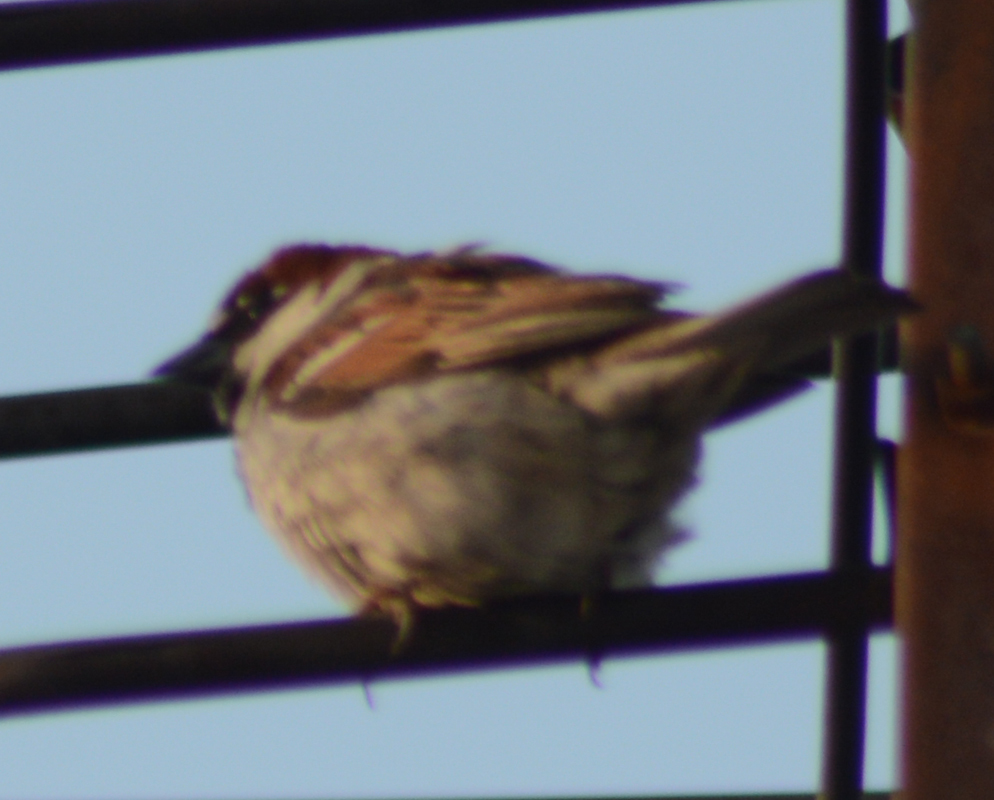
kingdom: Animalia
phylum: Chordata
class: Aves
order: Passeriformes
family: Passeridae
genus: Passer
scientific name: Passer domesticus
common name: House sparrow
